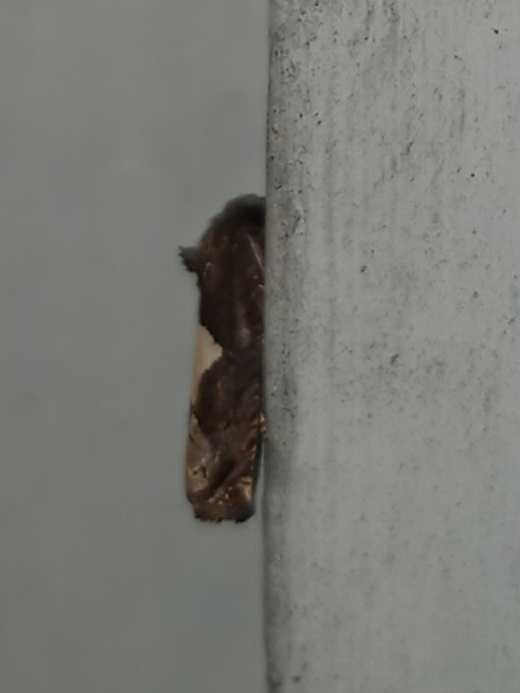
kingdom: Animalia
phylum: Arthropoda
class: Insecta
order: Lepidoptera
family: Tortricidae
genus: Epiblema
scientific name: Epiblema otiosana
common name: Bidens borer moth
